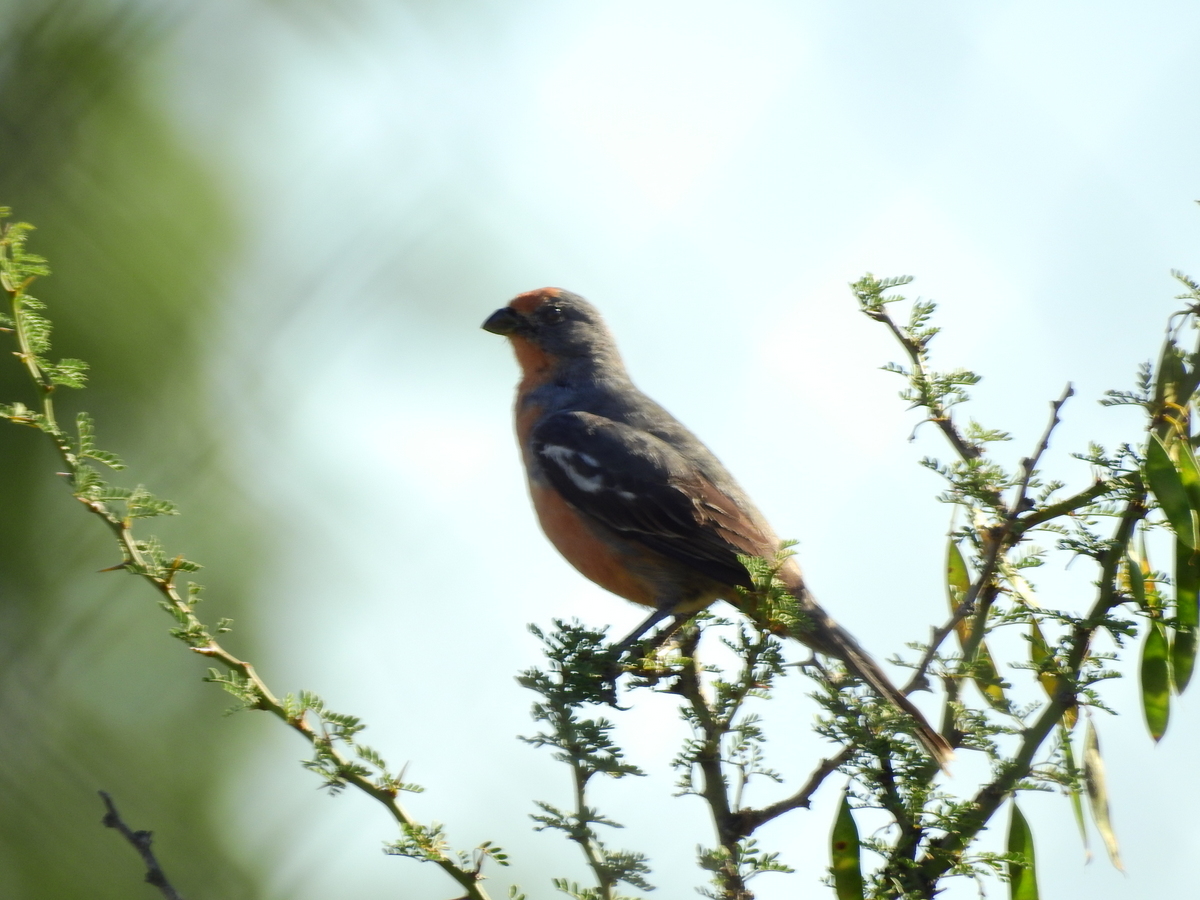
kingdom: Animalia
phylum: Chordata
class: Aves
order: Passeriformes
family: Cotingidae
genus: Phytotoma
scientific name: Phytotoma rutila
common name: White-tipped plantcutter
